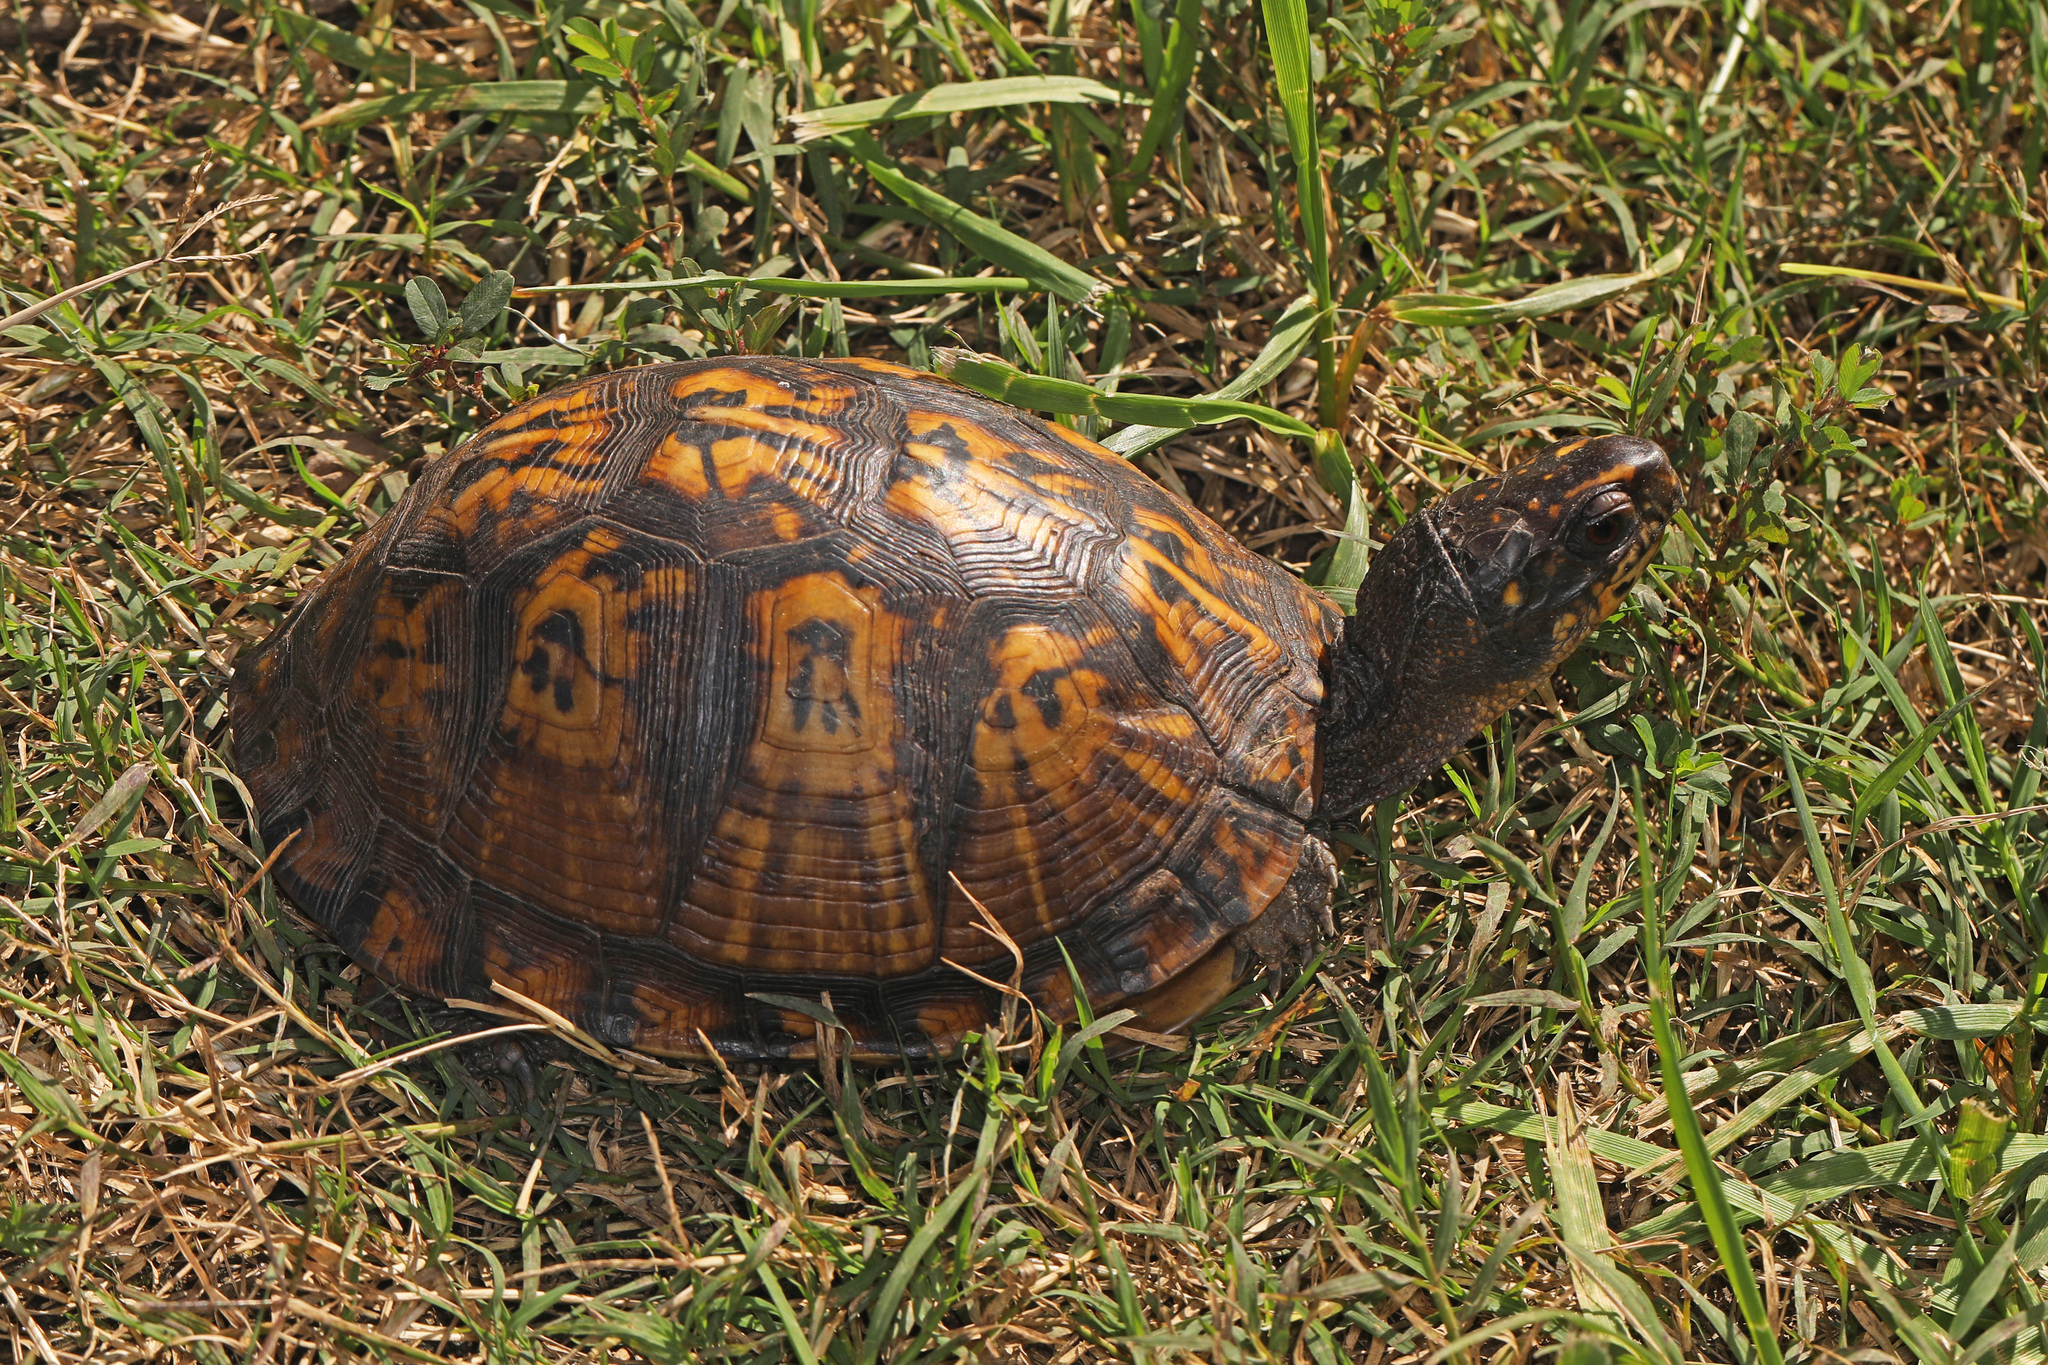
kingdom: Animalia
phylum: Chordata
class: Testudines
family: Emydidae
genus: Terrapene
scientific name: Terrapene carolina
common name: Common box turtle
